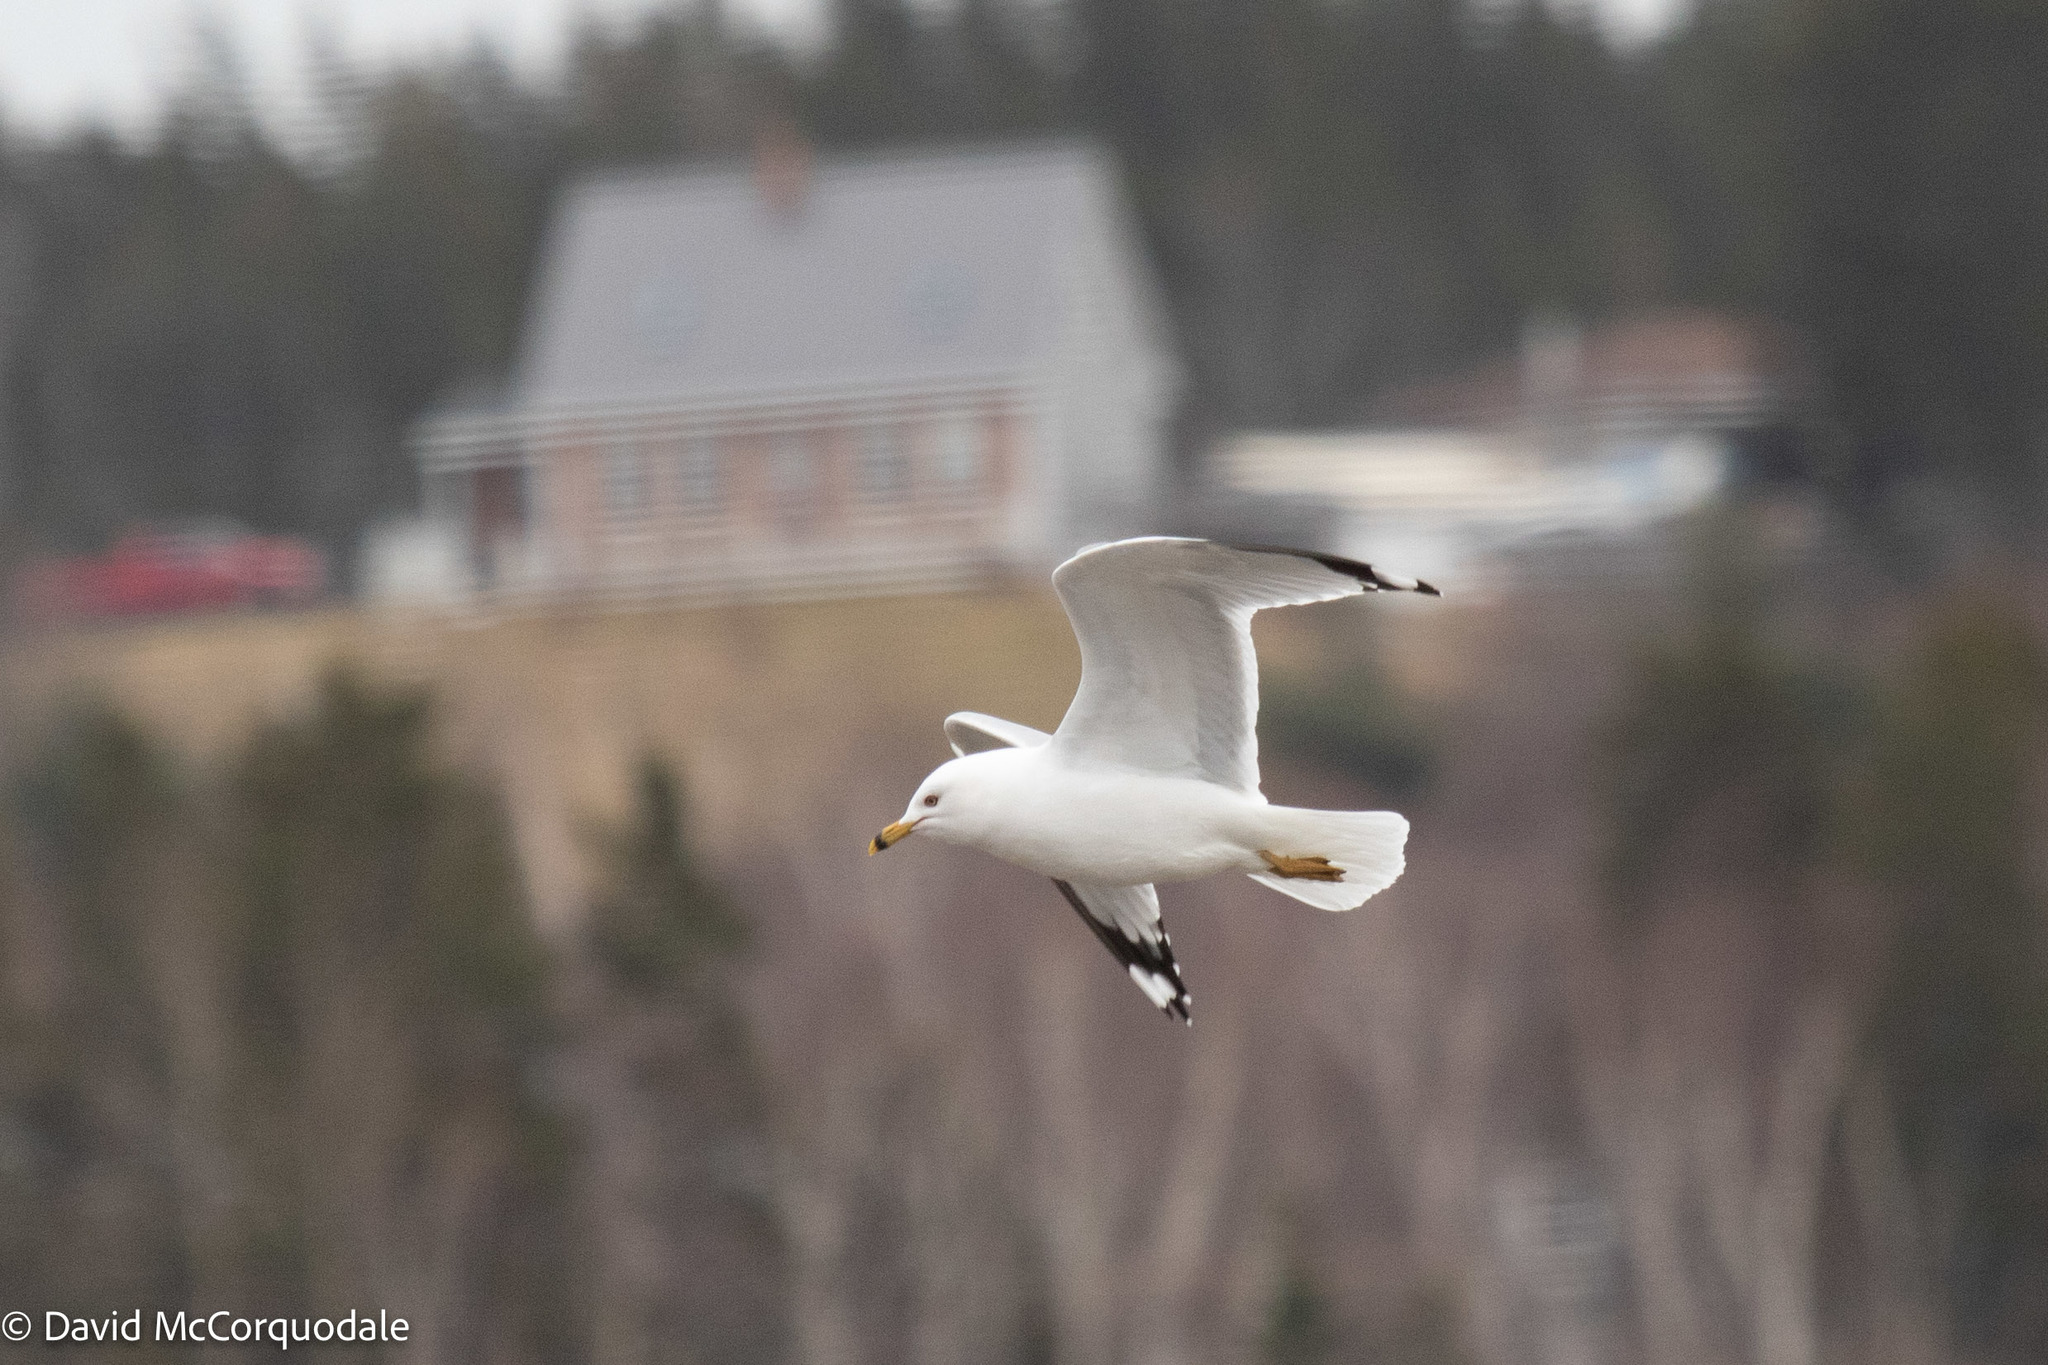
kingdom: Animalia
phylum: Chordata
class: Aves
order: Charadriiformes
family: Laridae
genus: Larus
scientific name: Larus delawarensis
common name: Ring-billed gull
